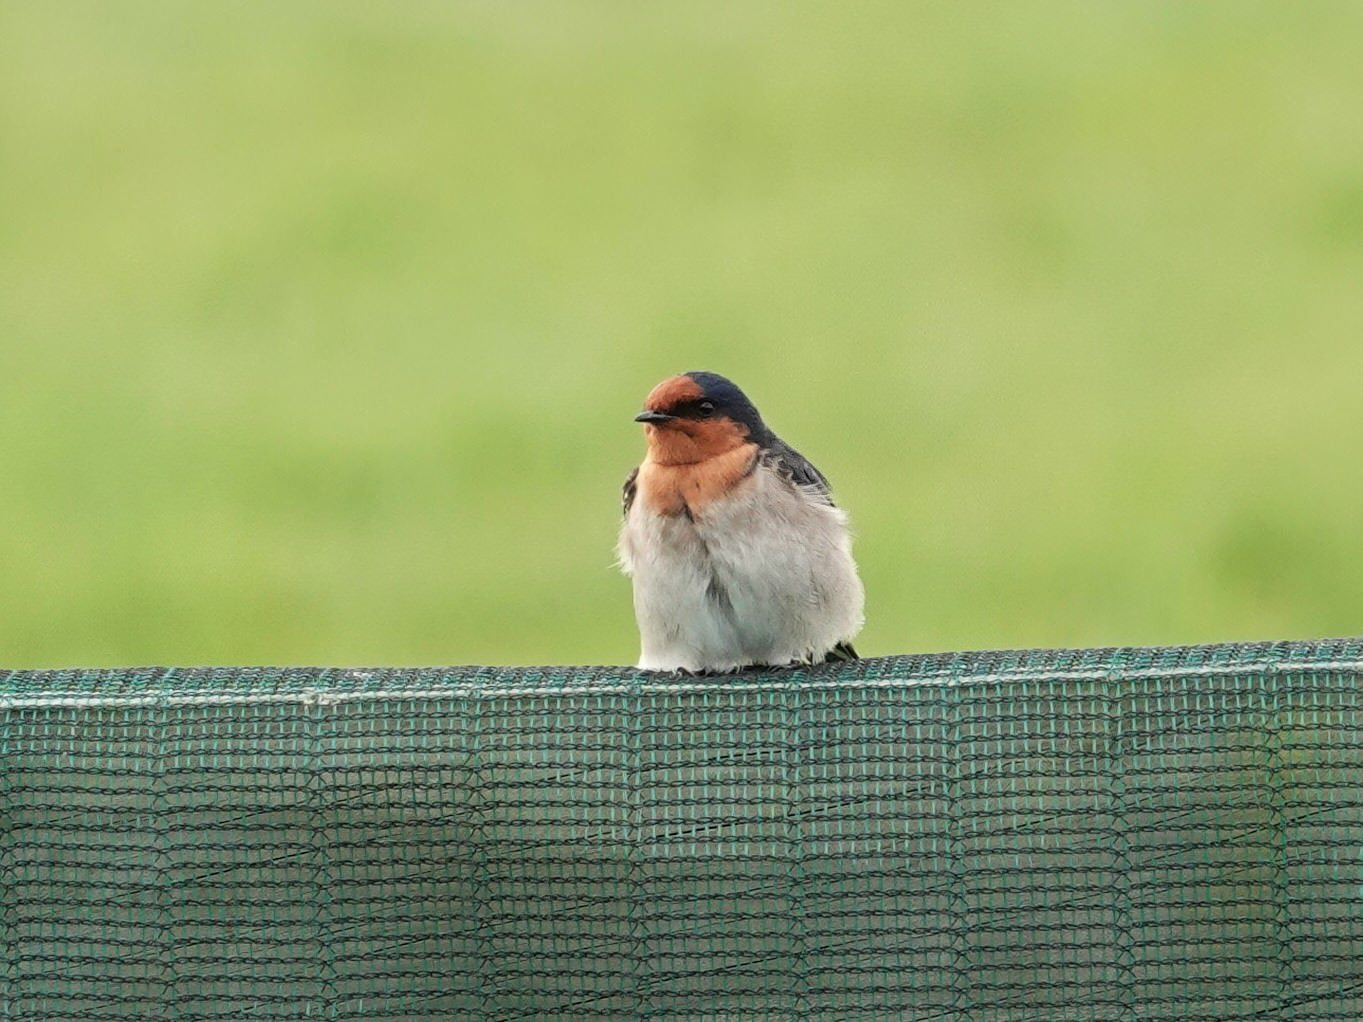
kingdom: Animalia
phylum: Chordata
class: Aves
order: Passeriformes
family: Hirundinidae
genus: Hirundo
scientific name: Hirundo neoxena
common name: Welcome swallow
